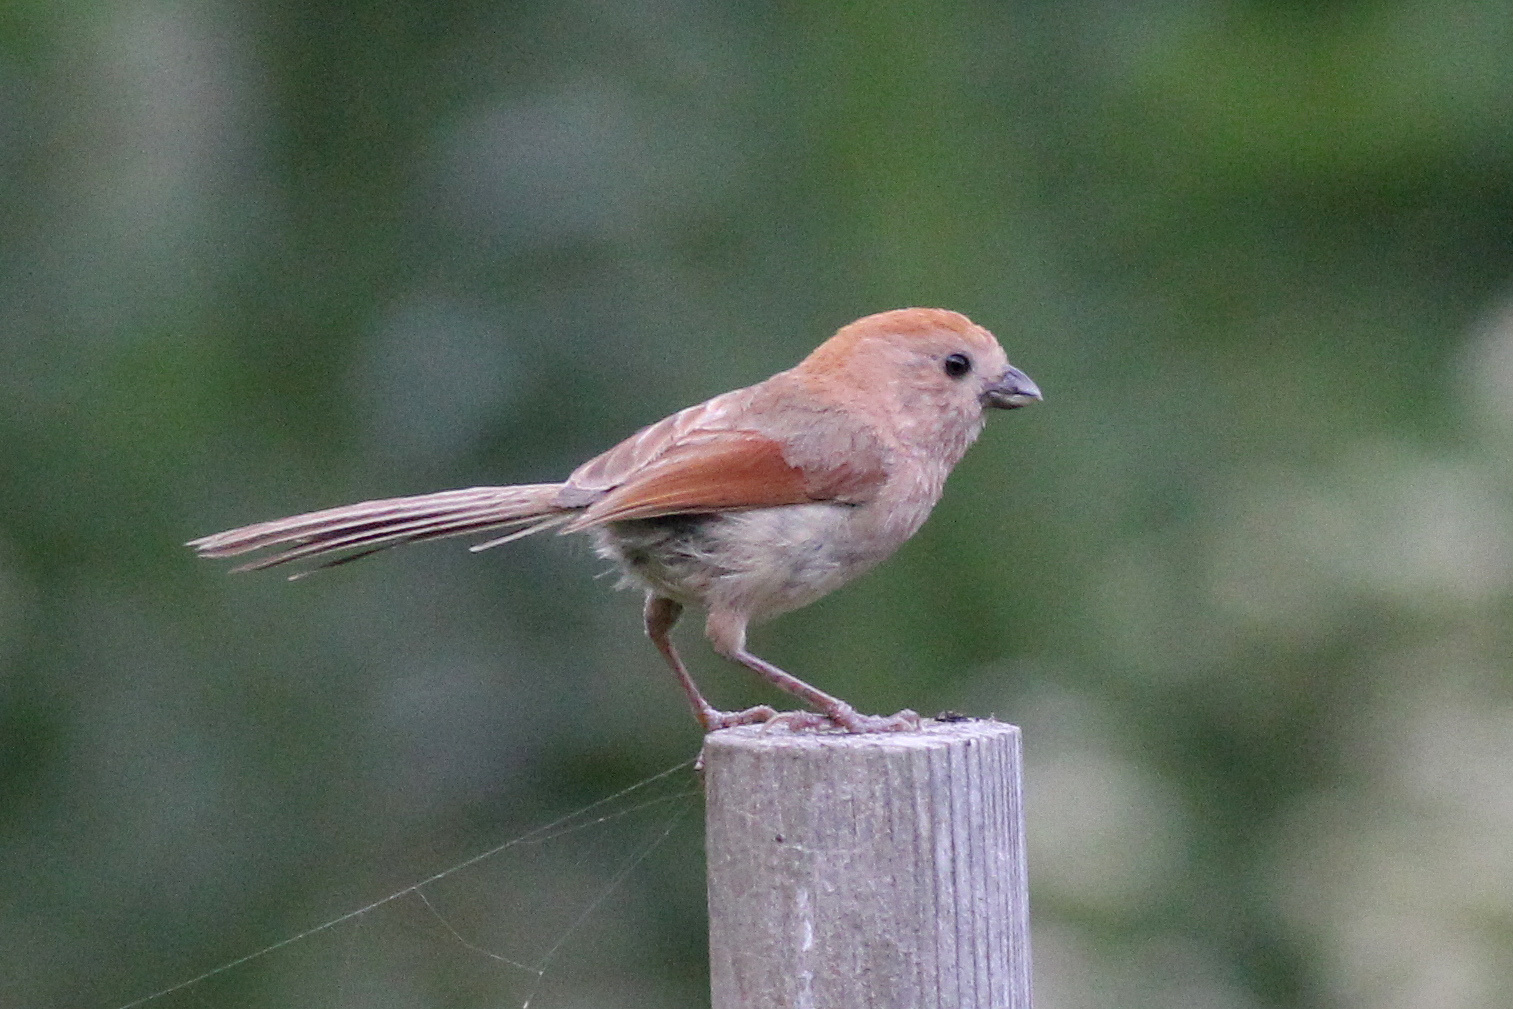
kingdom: Animalia
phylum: Chordata
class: Aves
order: Passeriformes
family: Sylviidae
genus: Sinosuthora
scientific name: Sinosuthora webbiana
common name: Vinous-throated parrotbill
